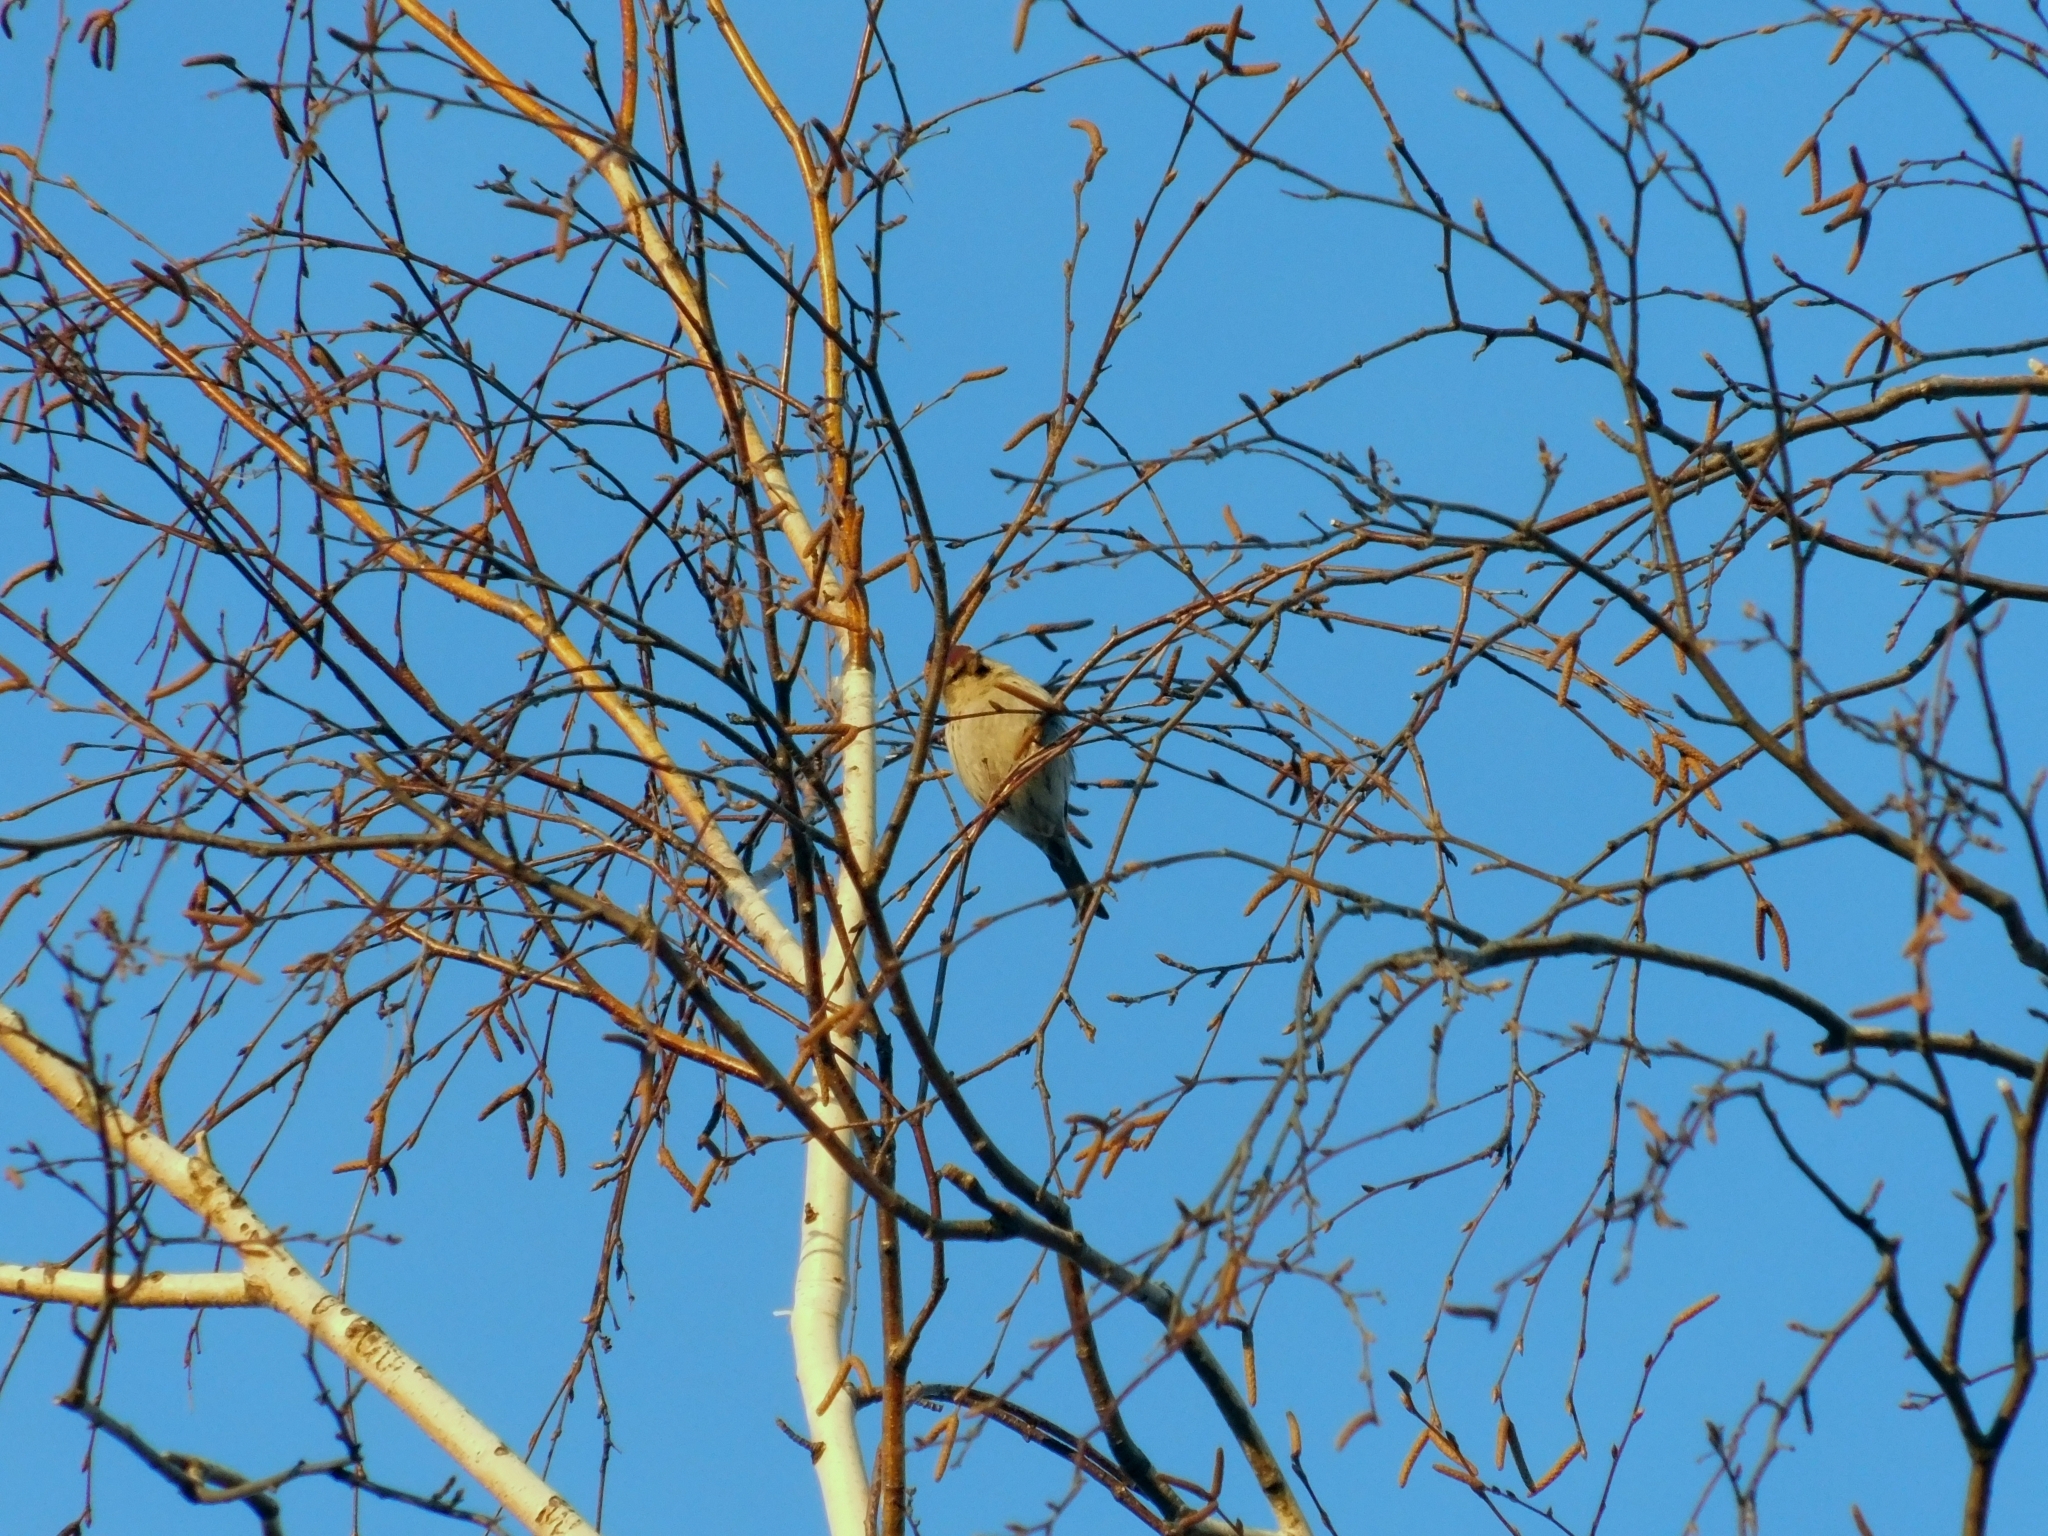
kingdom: Animalia
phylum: Chordata
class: Aves
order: Passeriformes
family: Fringillidae
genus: Acanthis
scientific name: Acanthis flammea
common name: Common redpoll
